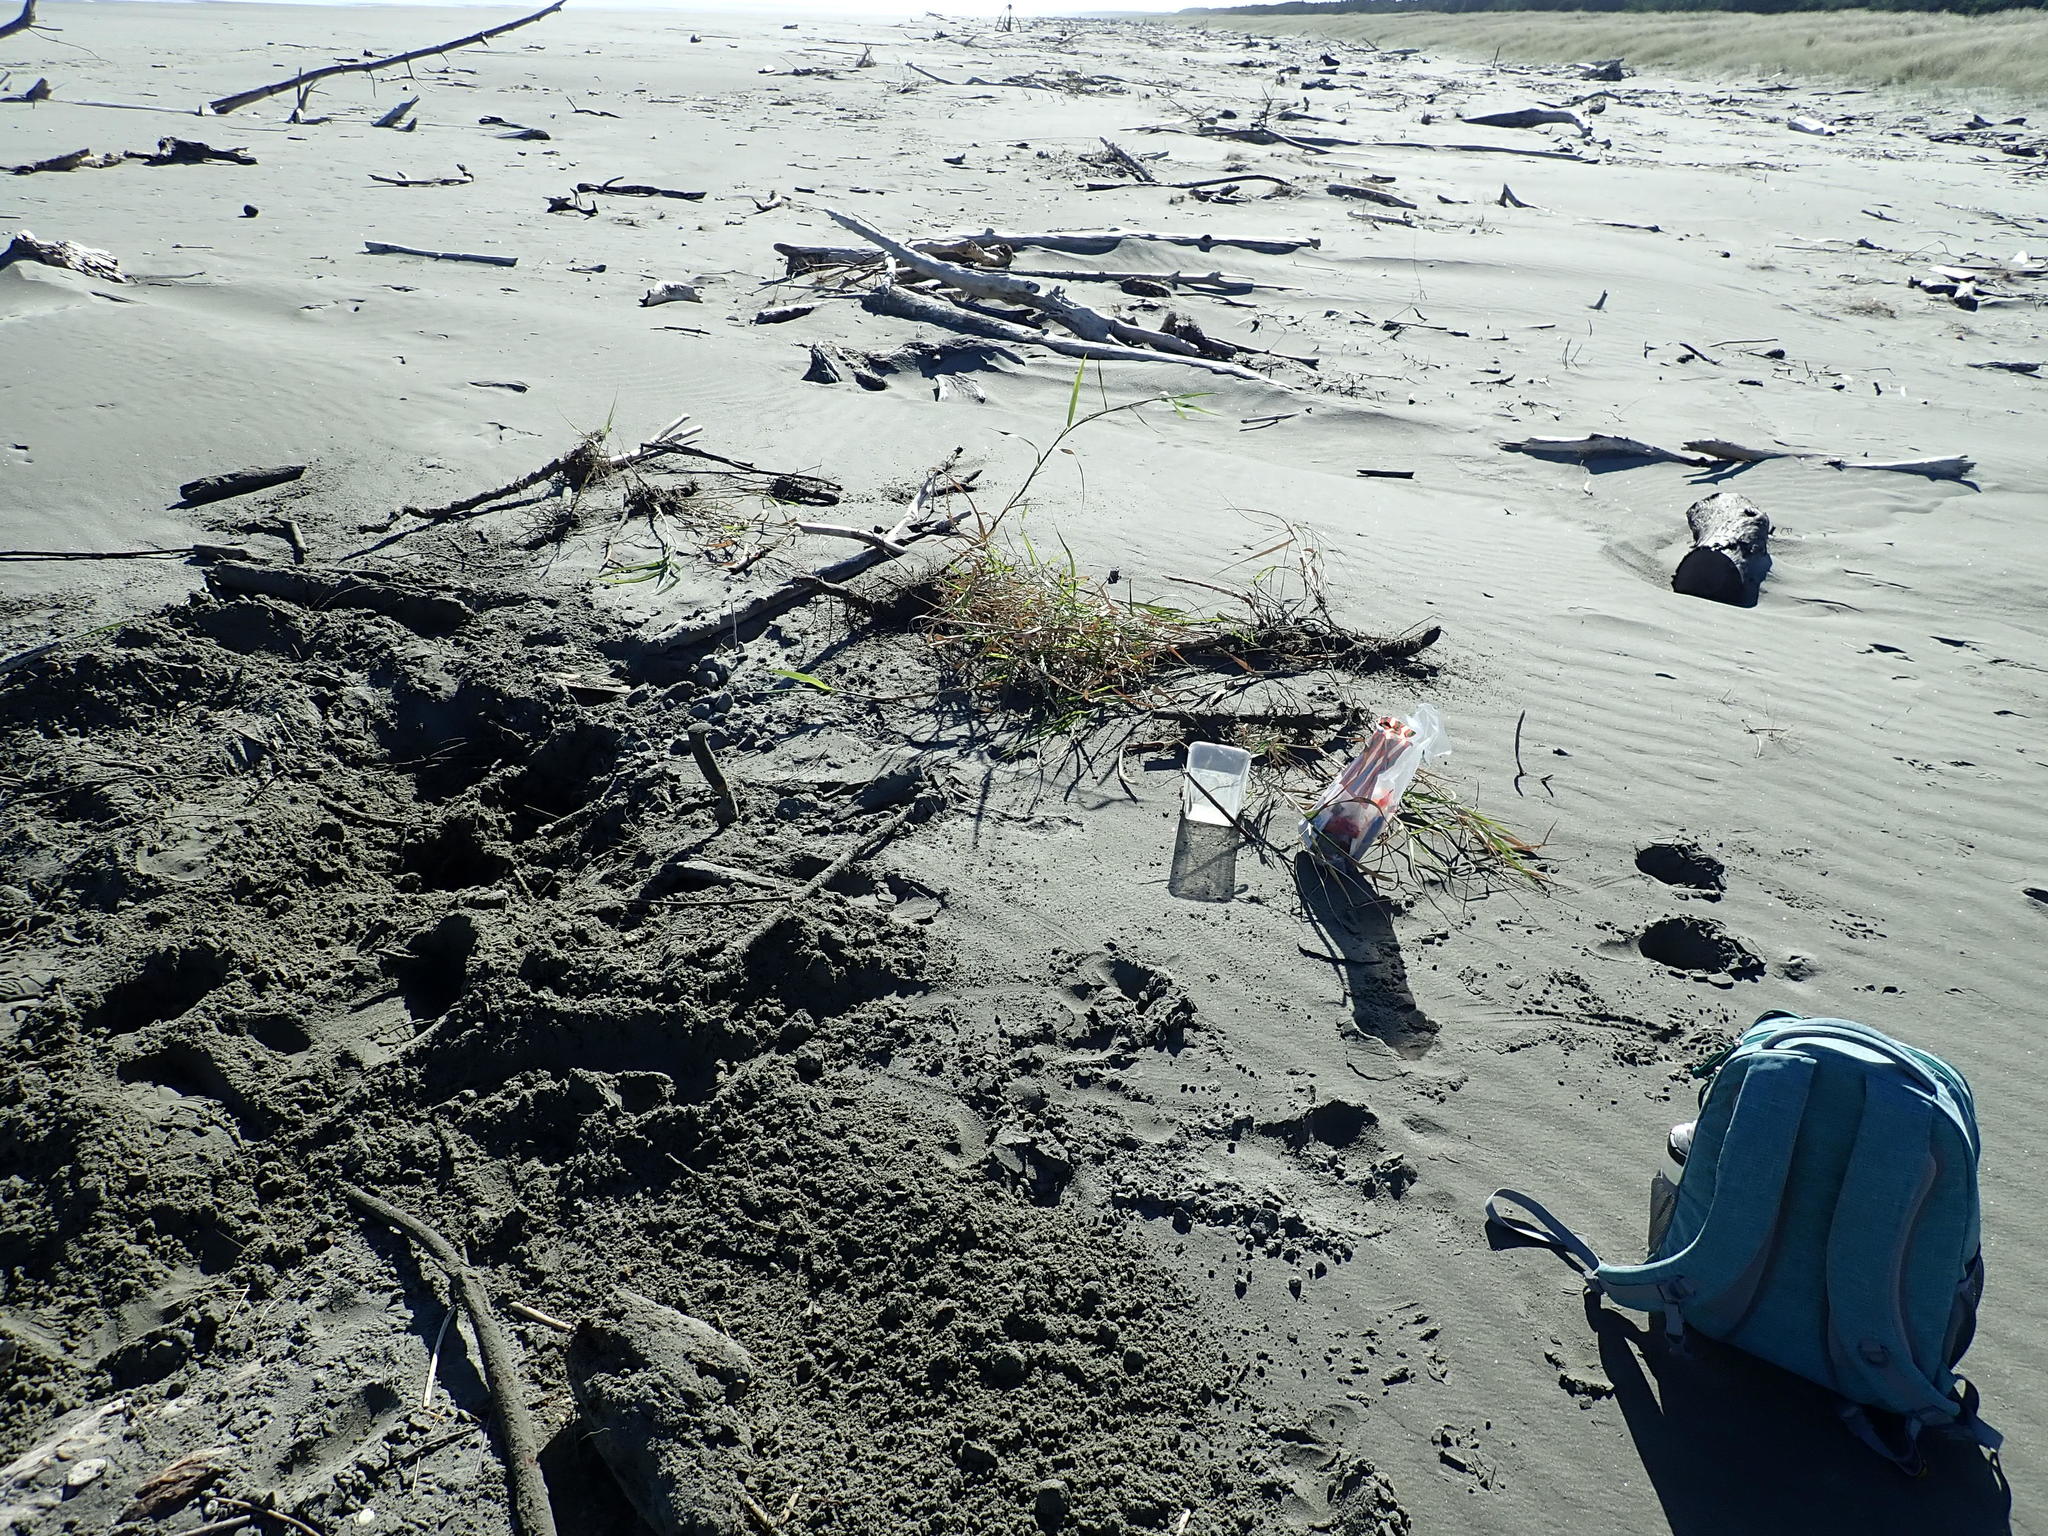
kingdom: Plantae
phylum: Tracheophyta
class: Liliopsida
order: Poales
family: Poaceae
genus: Phragmites
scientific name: Phragmites karka
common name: Tropical reed
